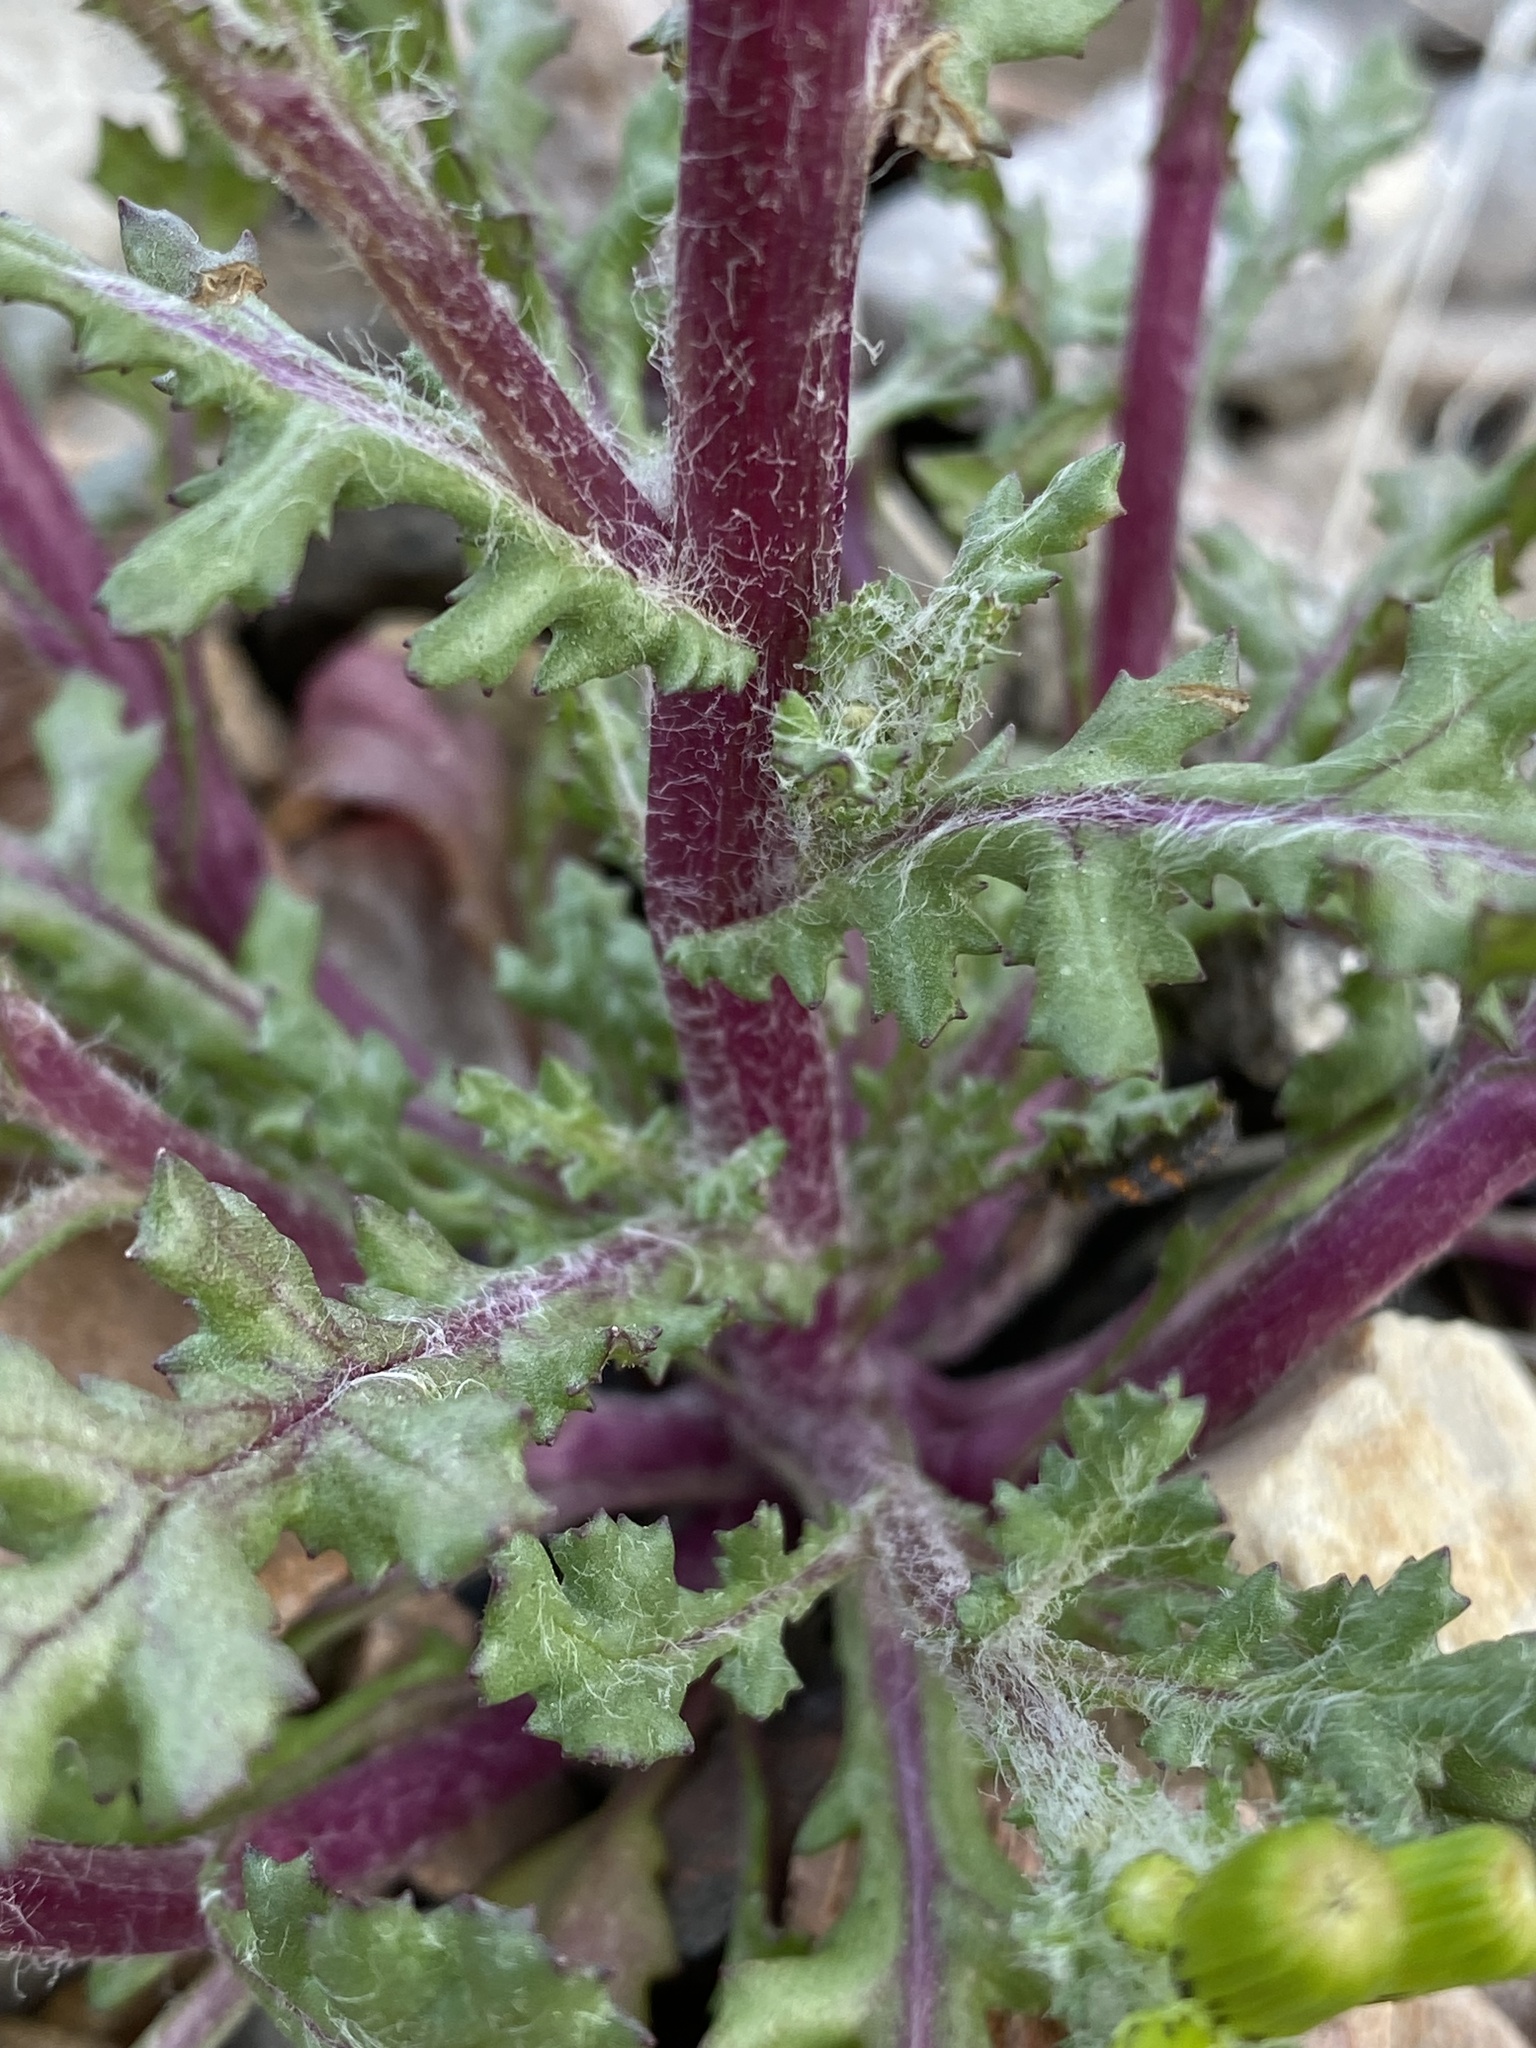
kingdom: Plantae
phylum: Tracheophyta
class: Magnoliopsida
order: Asterales
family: Asteraceae
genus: Senecio
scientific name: Senecio vulgaris
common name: Old-man-in-the-spring
